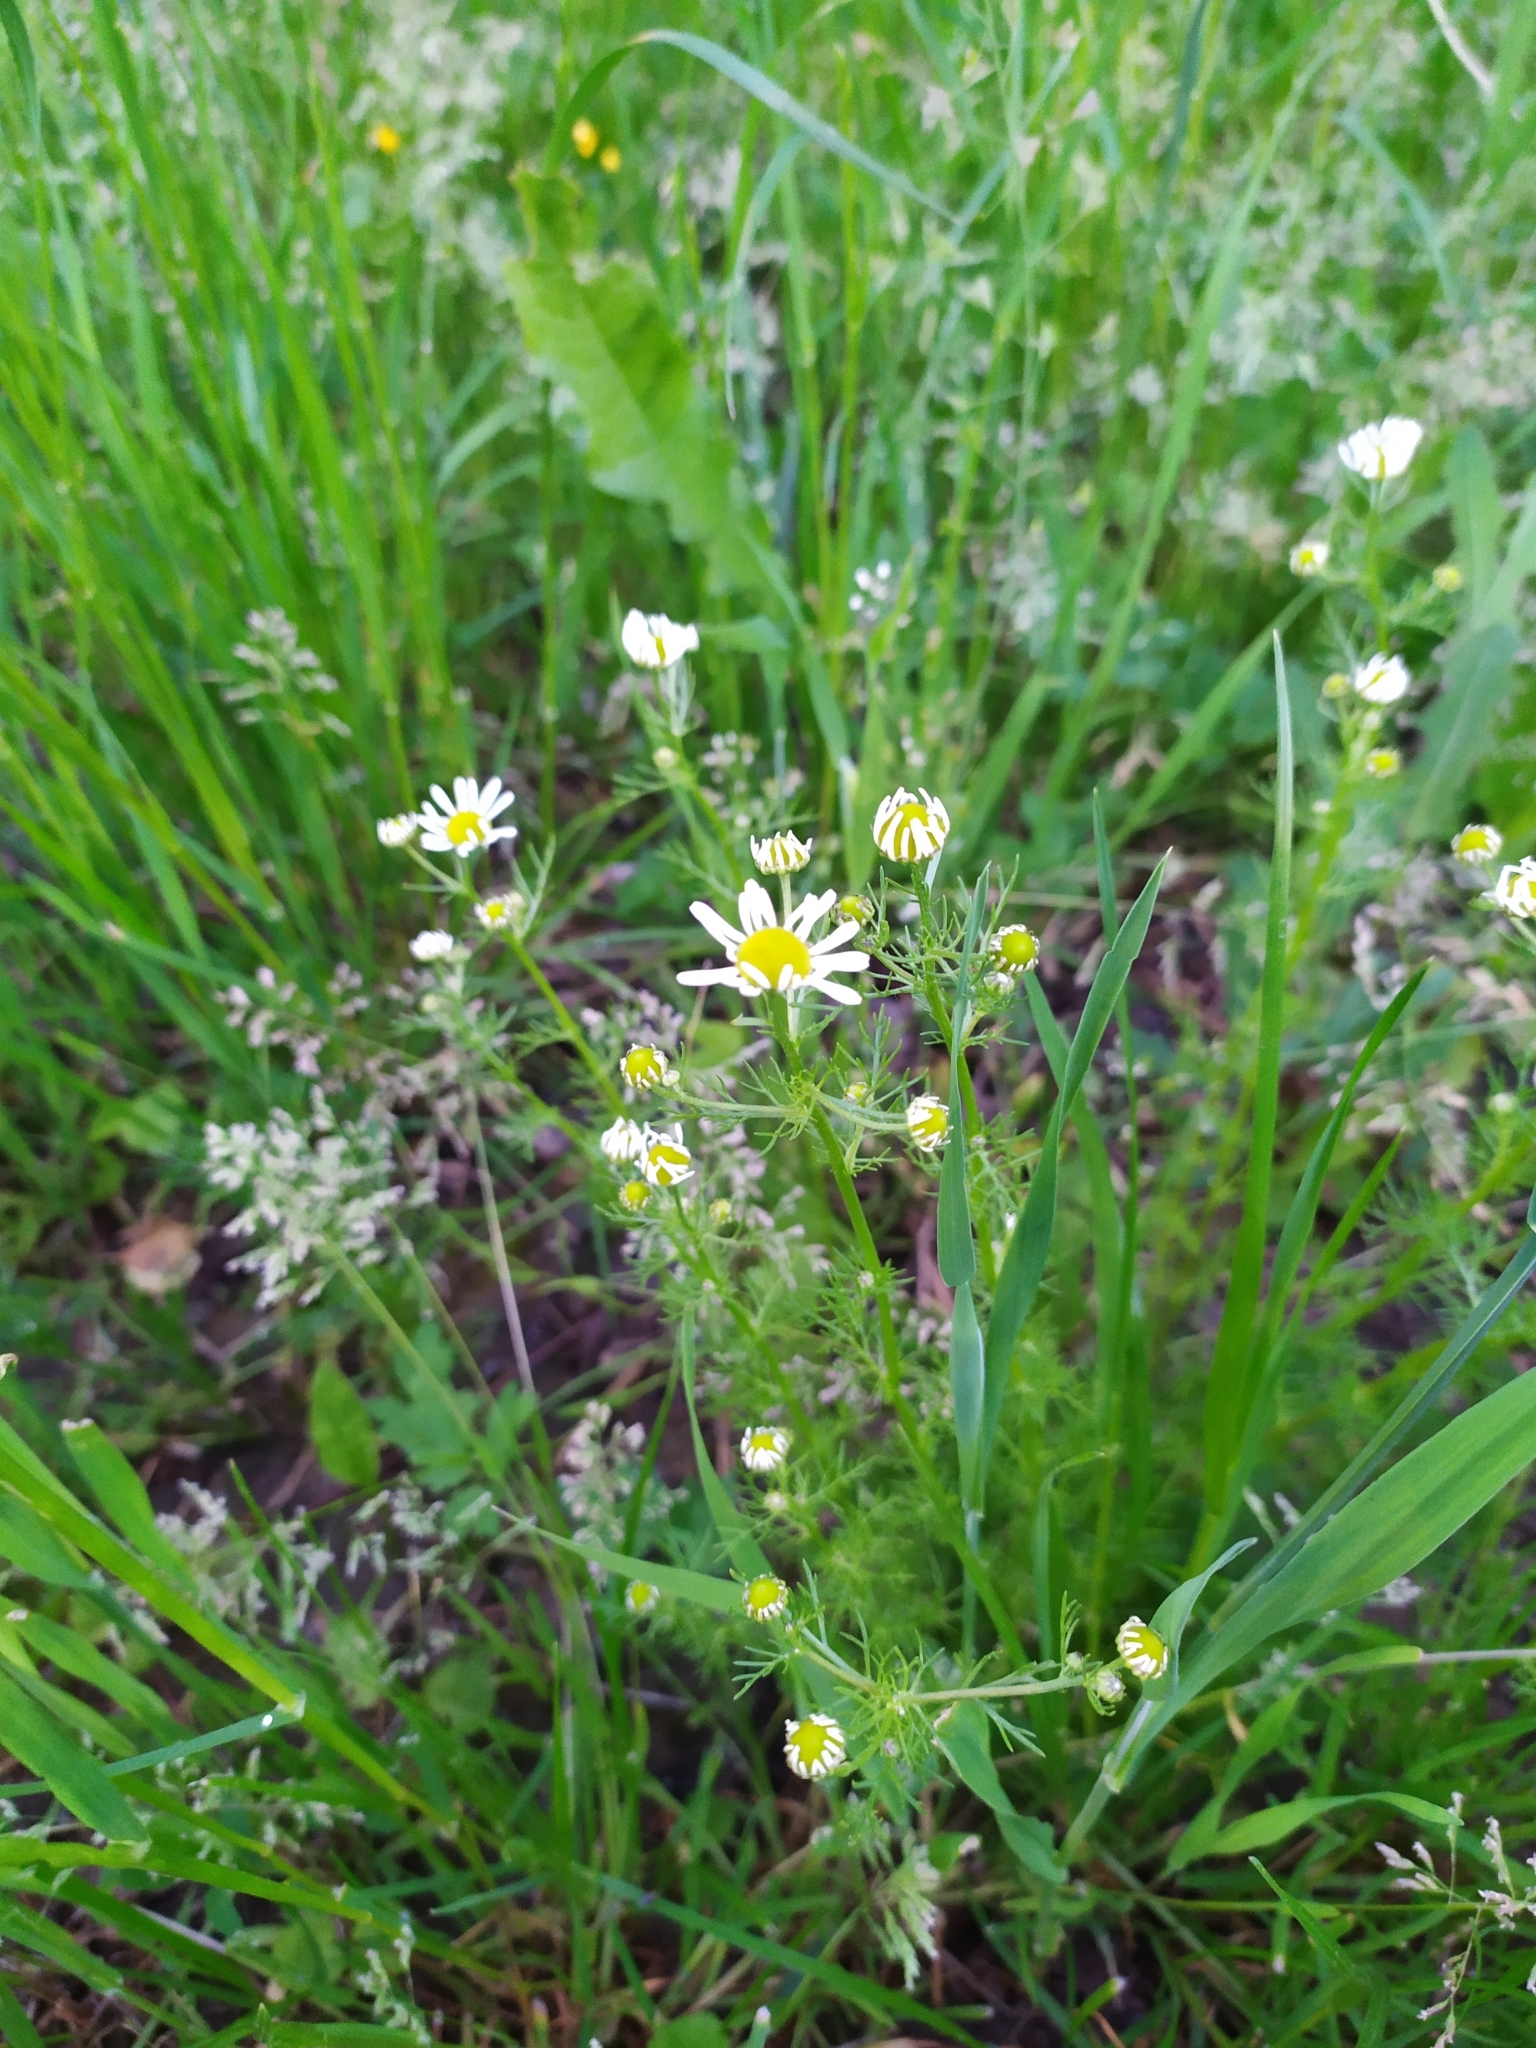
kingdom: Plantae
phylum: Tracheophyta
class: Magnoliopsida
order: Asterales
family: Asteraceae
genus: Matricaria
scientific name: Matricaria chamomilla
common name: Scented mayweed
